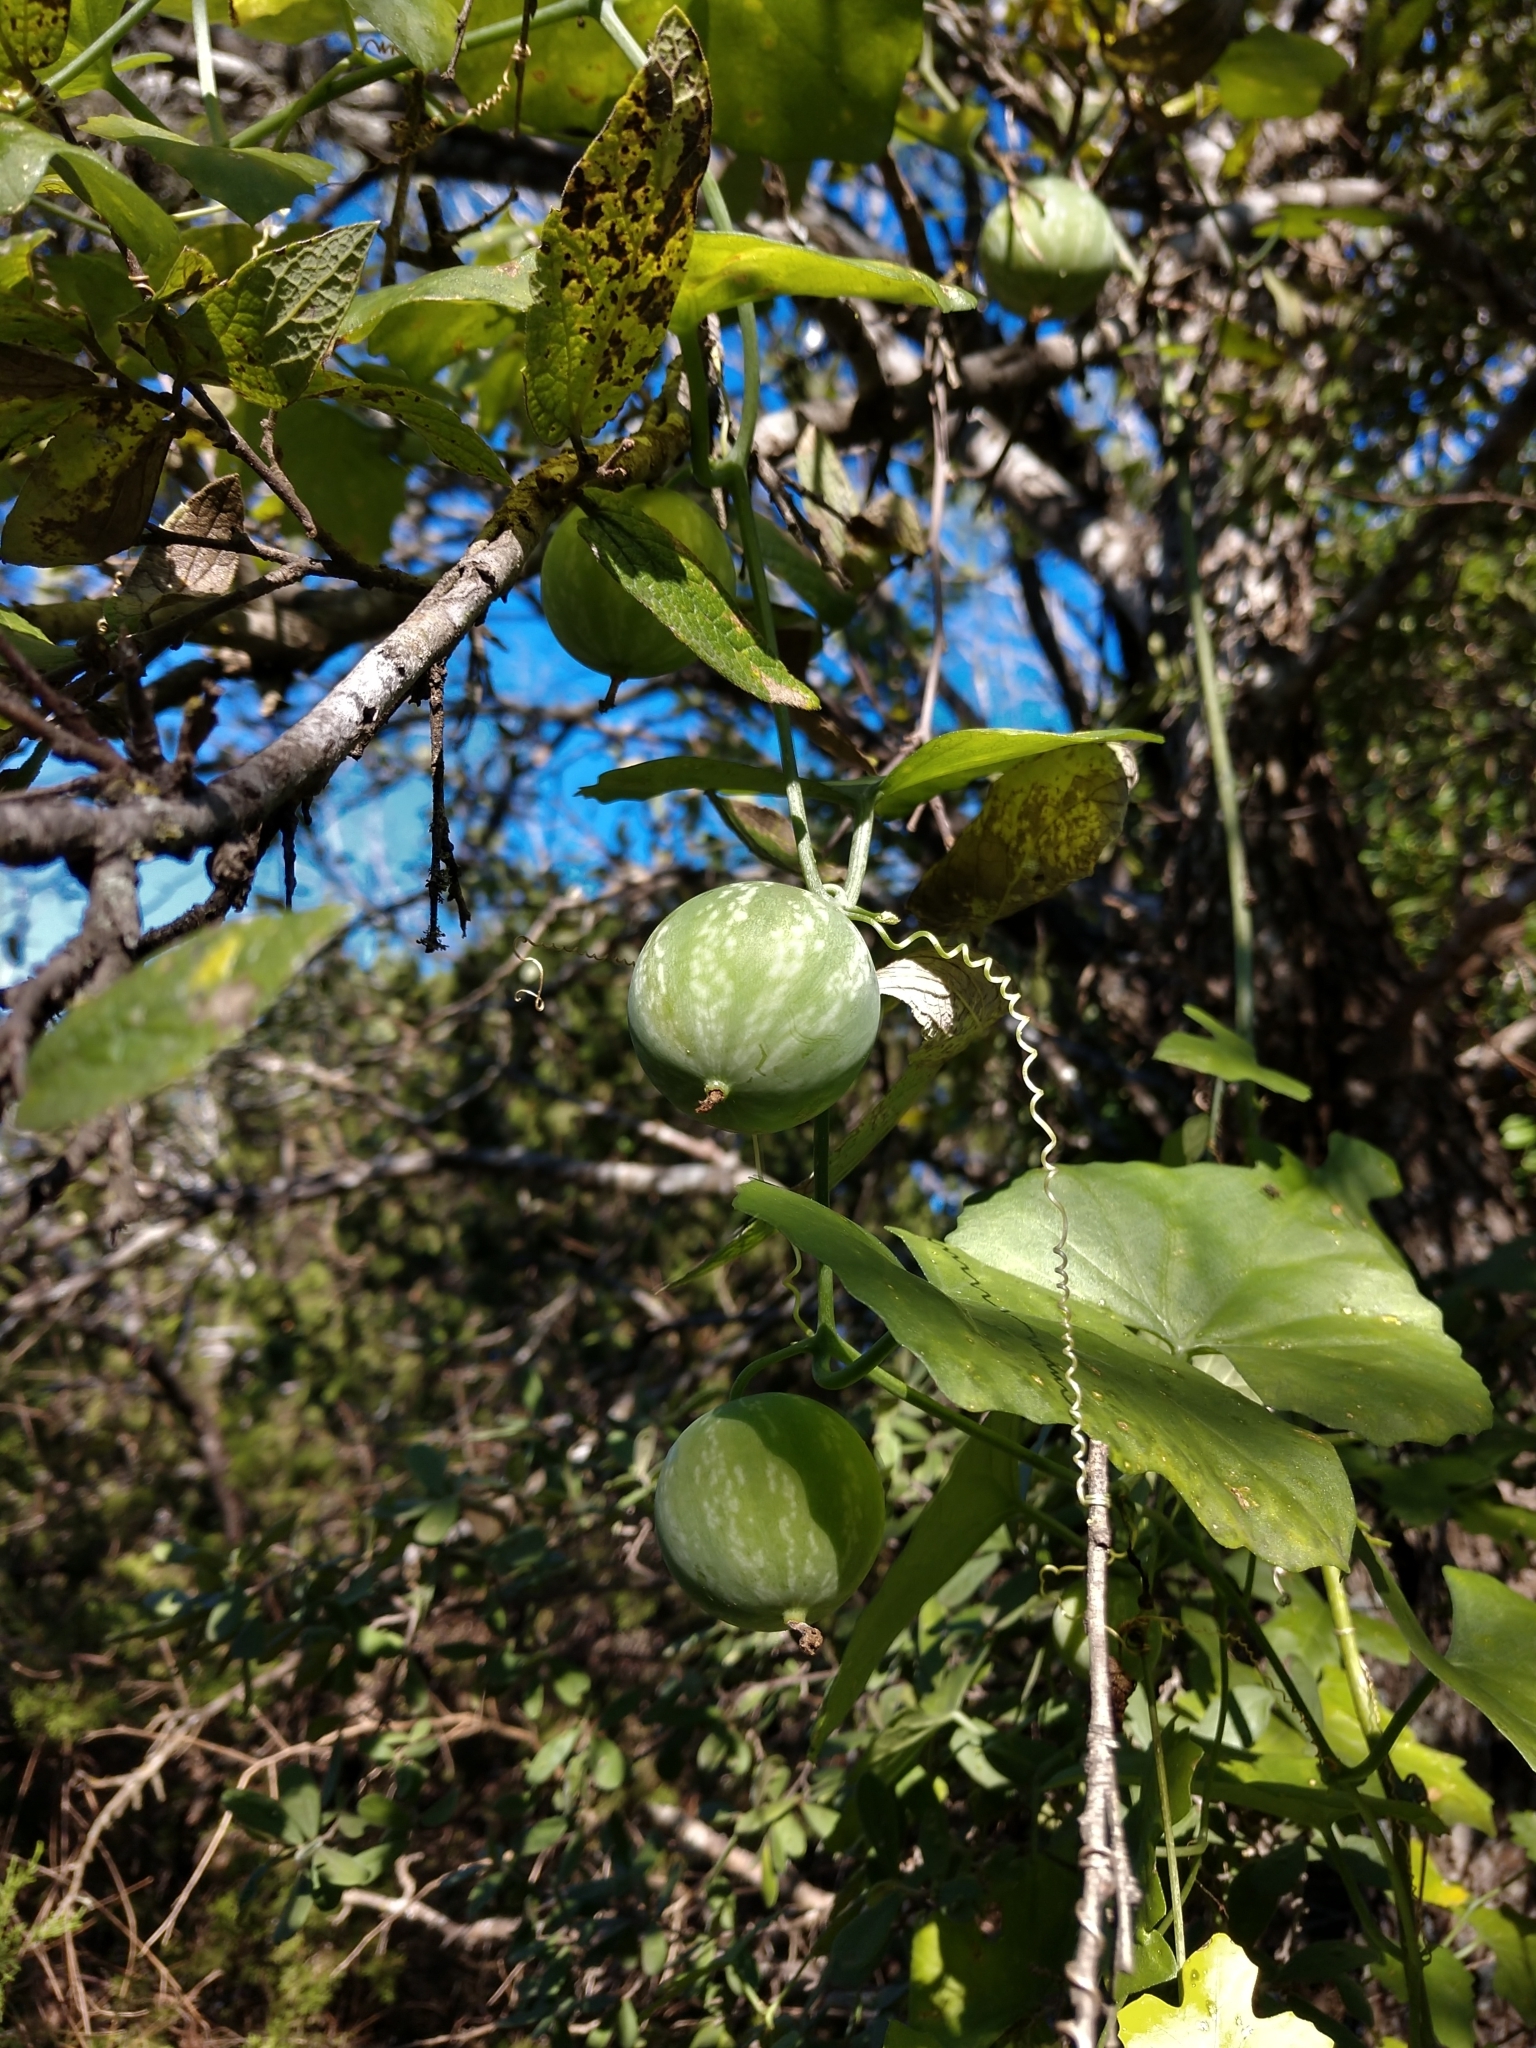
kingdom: Plantae
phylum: Tracheophyta
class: Magnoliopsida
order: Cucurbitales
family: Cucurbitaceae
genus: Ibervillea
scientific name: Ibervillea lindheimeri
